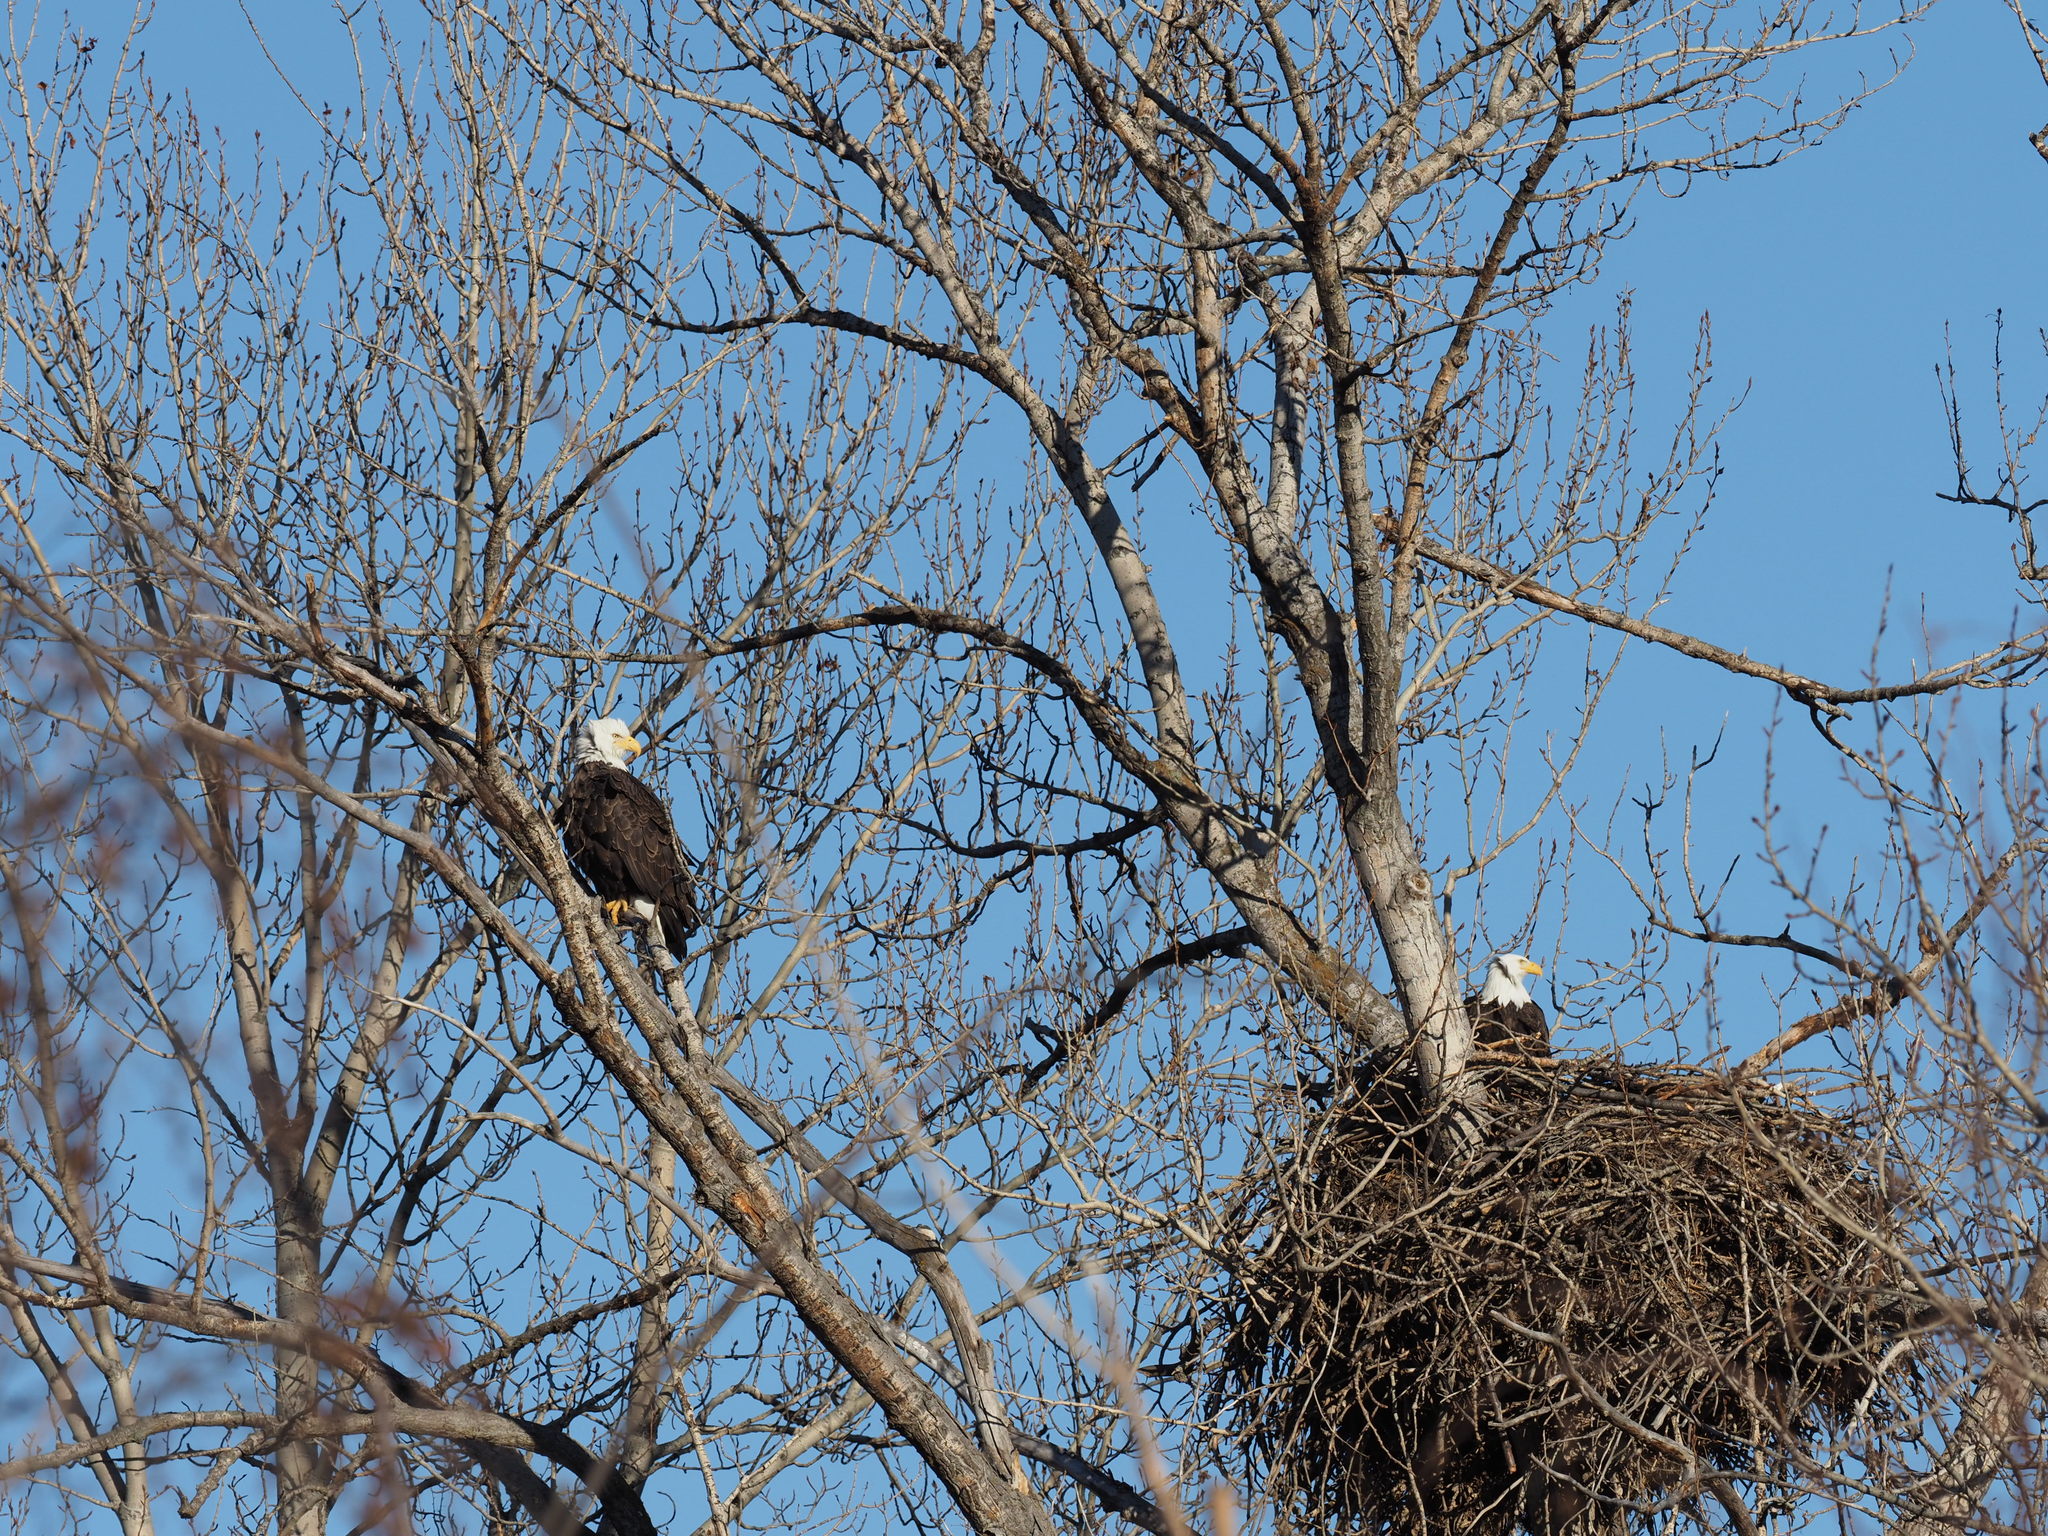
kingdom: Animalia
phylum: Chordata
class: Aves
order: Accipitriformes
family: Accipitridae
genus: Haliaeetus
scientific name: Haliaeetus leucocephalus
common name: Bald eagle
